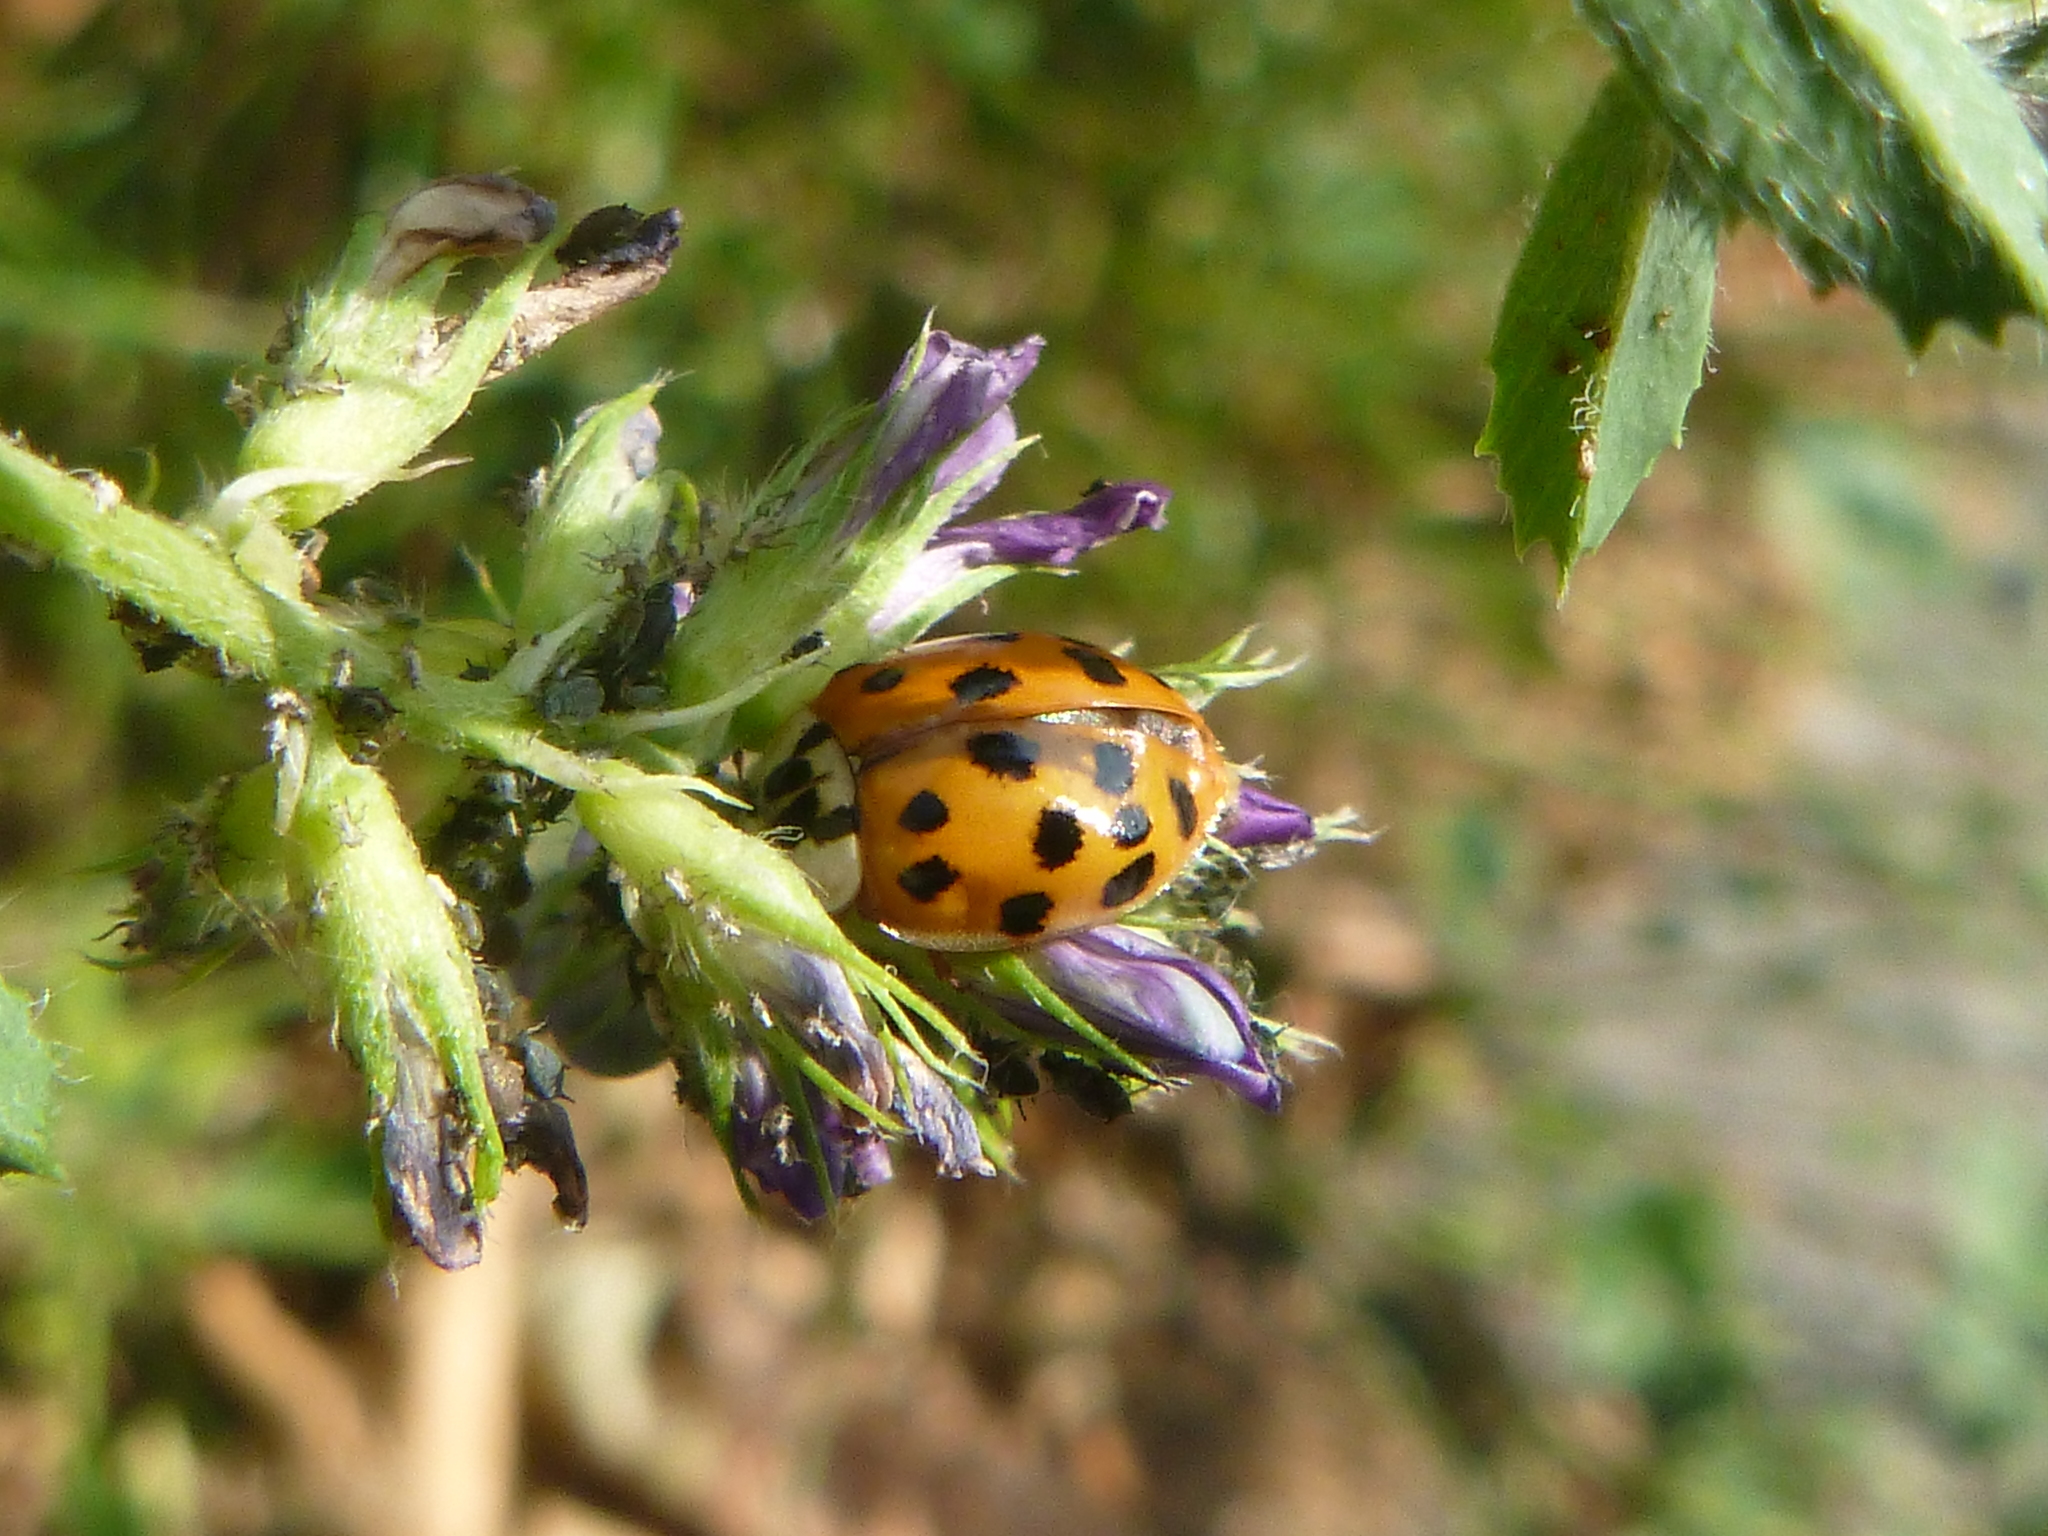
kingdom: Animalia
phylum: Arthropoda
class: Insecta
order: Coleoptera
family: Coccinellidae
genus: Harmonia
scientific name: Harmonia axyridis
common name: Harlequin ladybird
